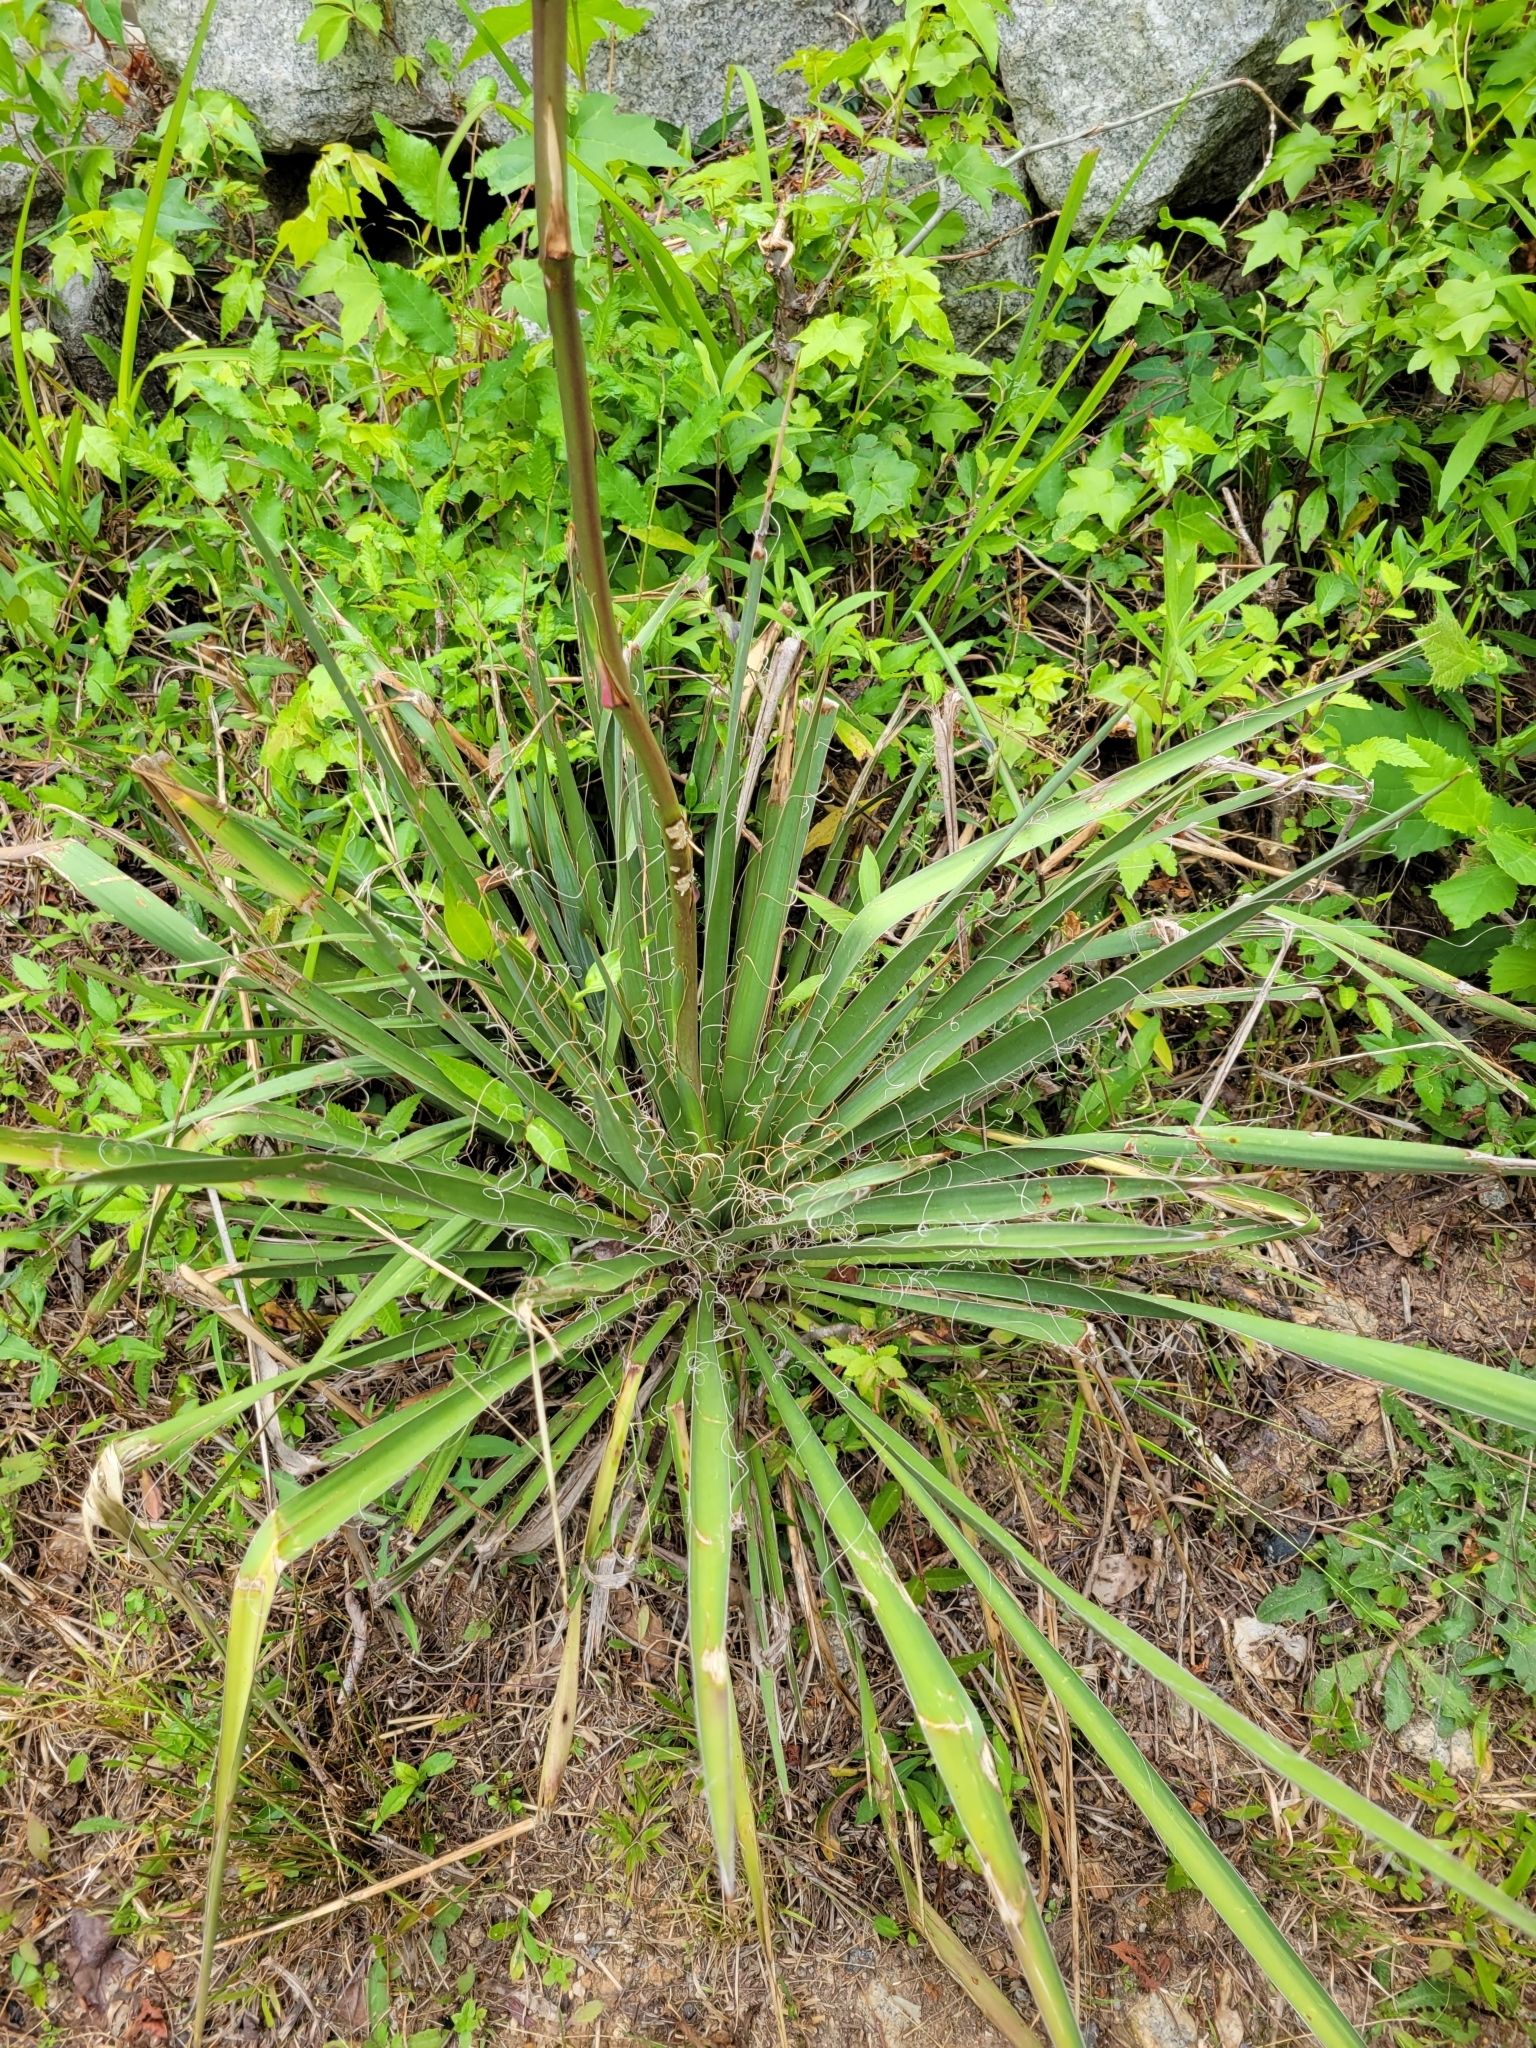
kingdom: Plantae
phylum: Tracheophyta
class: Liliopsida
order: Asparagales
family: Asparagaceae
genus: Yucca
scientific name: Yucca filamentosa
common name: Adam's-needle
